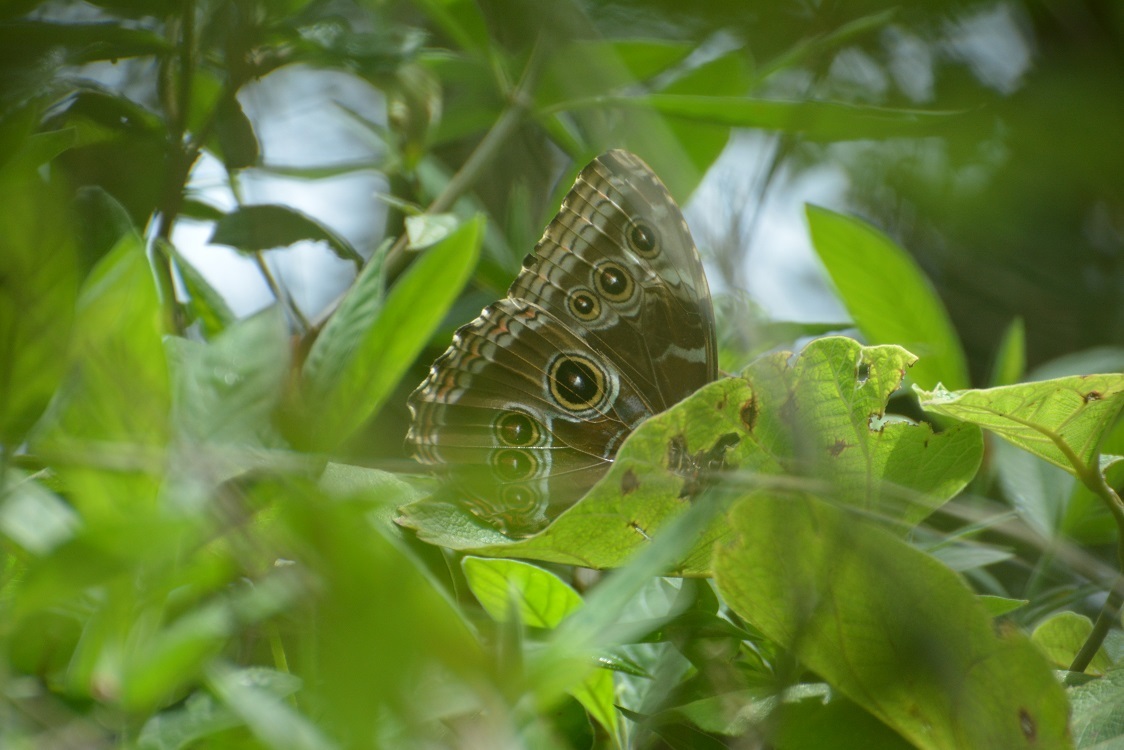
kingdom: Animalia
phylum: Arthropoda
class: Insecta
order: Lepidoptera
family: Nymphalidae
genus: Morpho
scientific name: Morpho helenor
